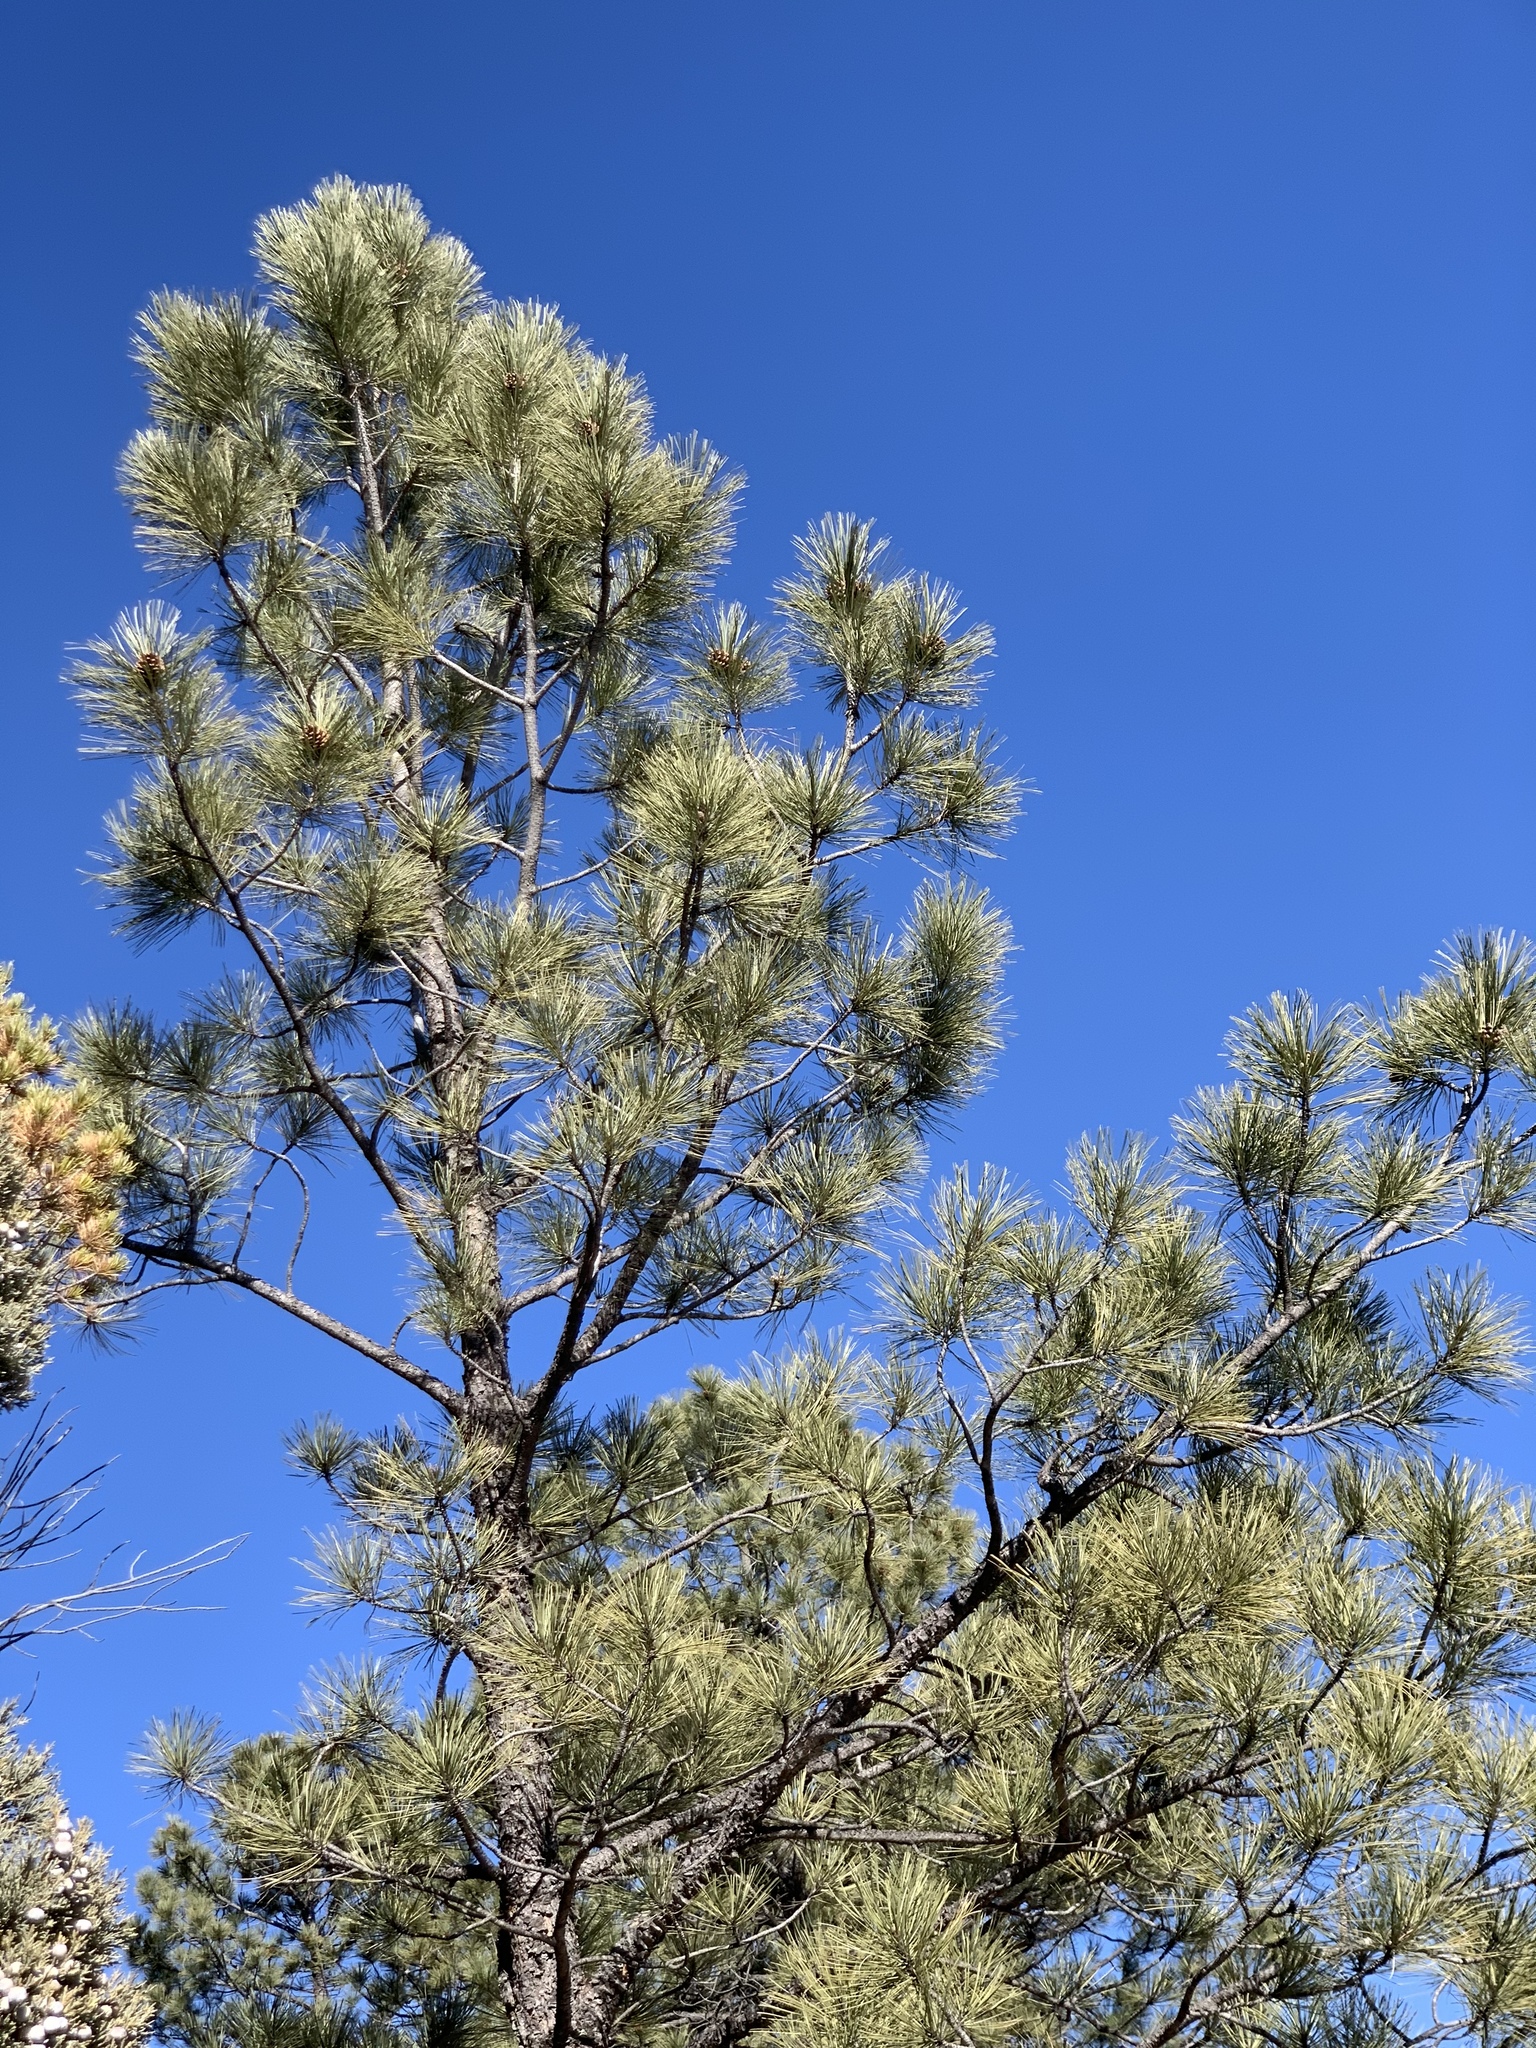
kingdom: Plantae
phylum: Tracheophyta
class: Pinopsida
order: Pinales
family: Pinaceae
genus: Pinus
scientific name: Pinus ponderosa
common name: Western yellow-pine
